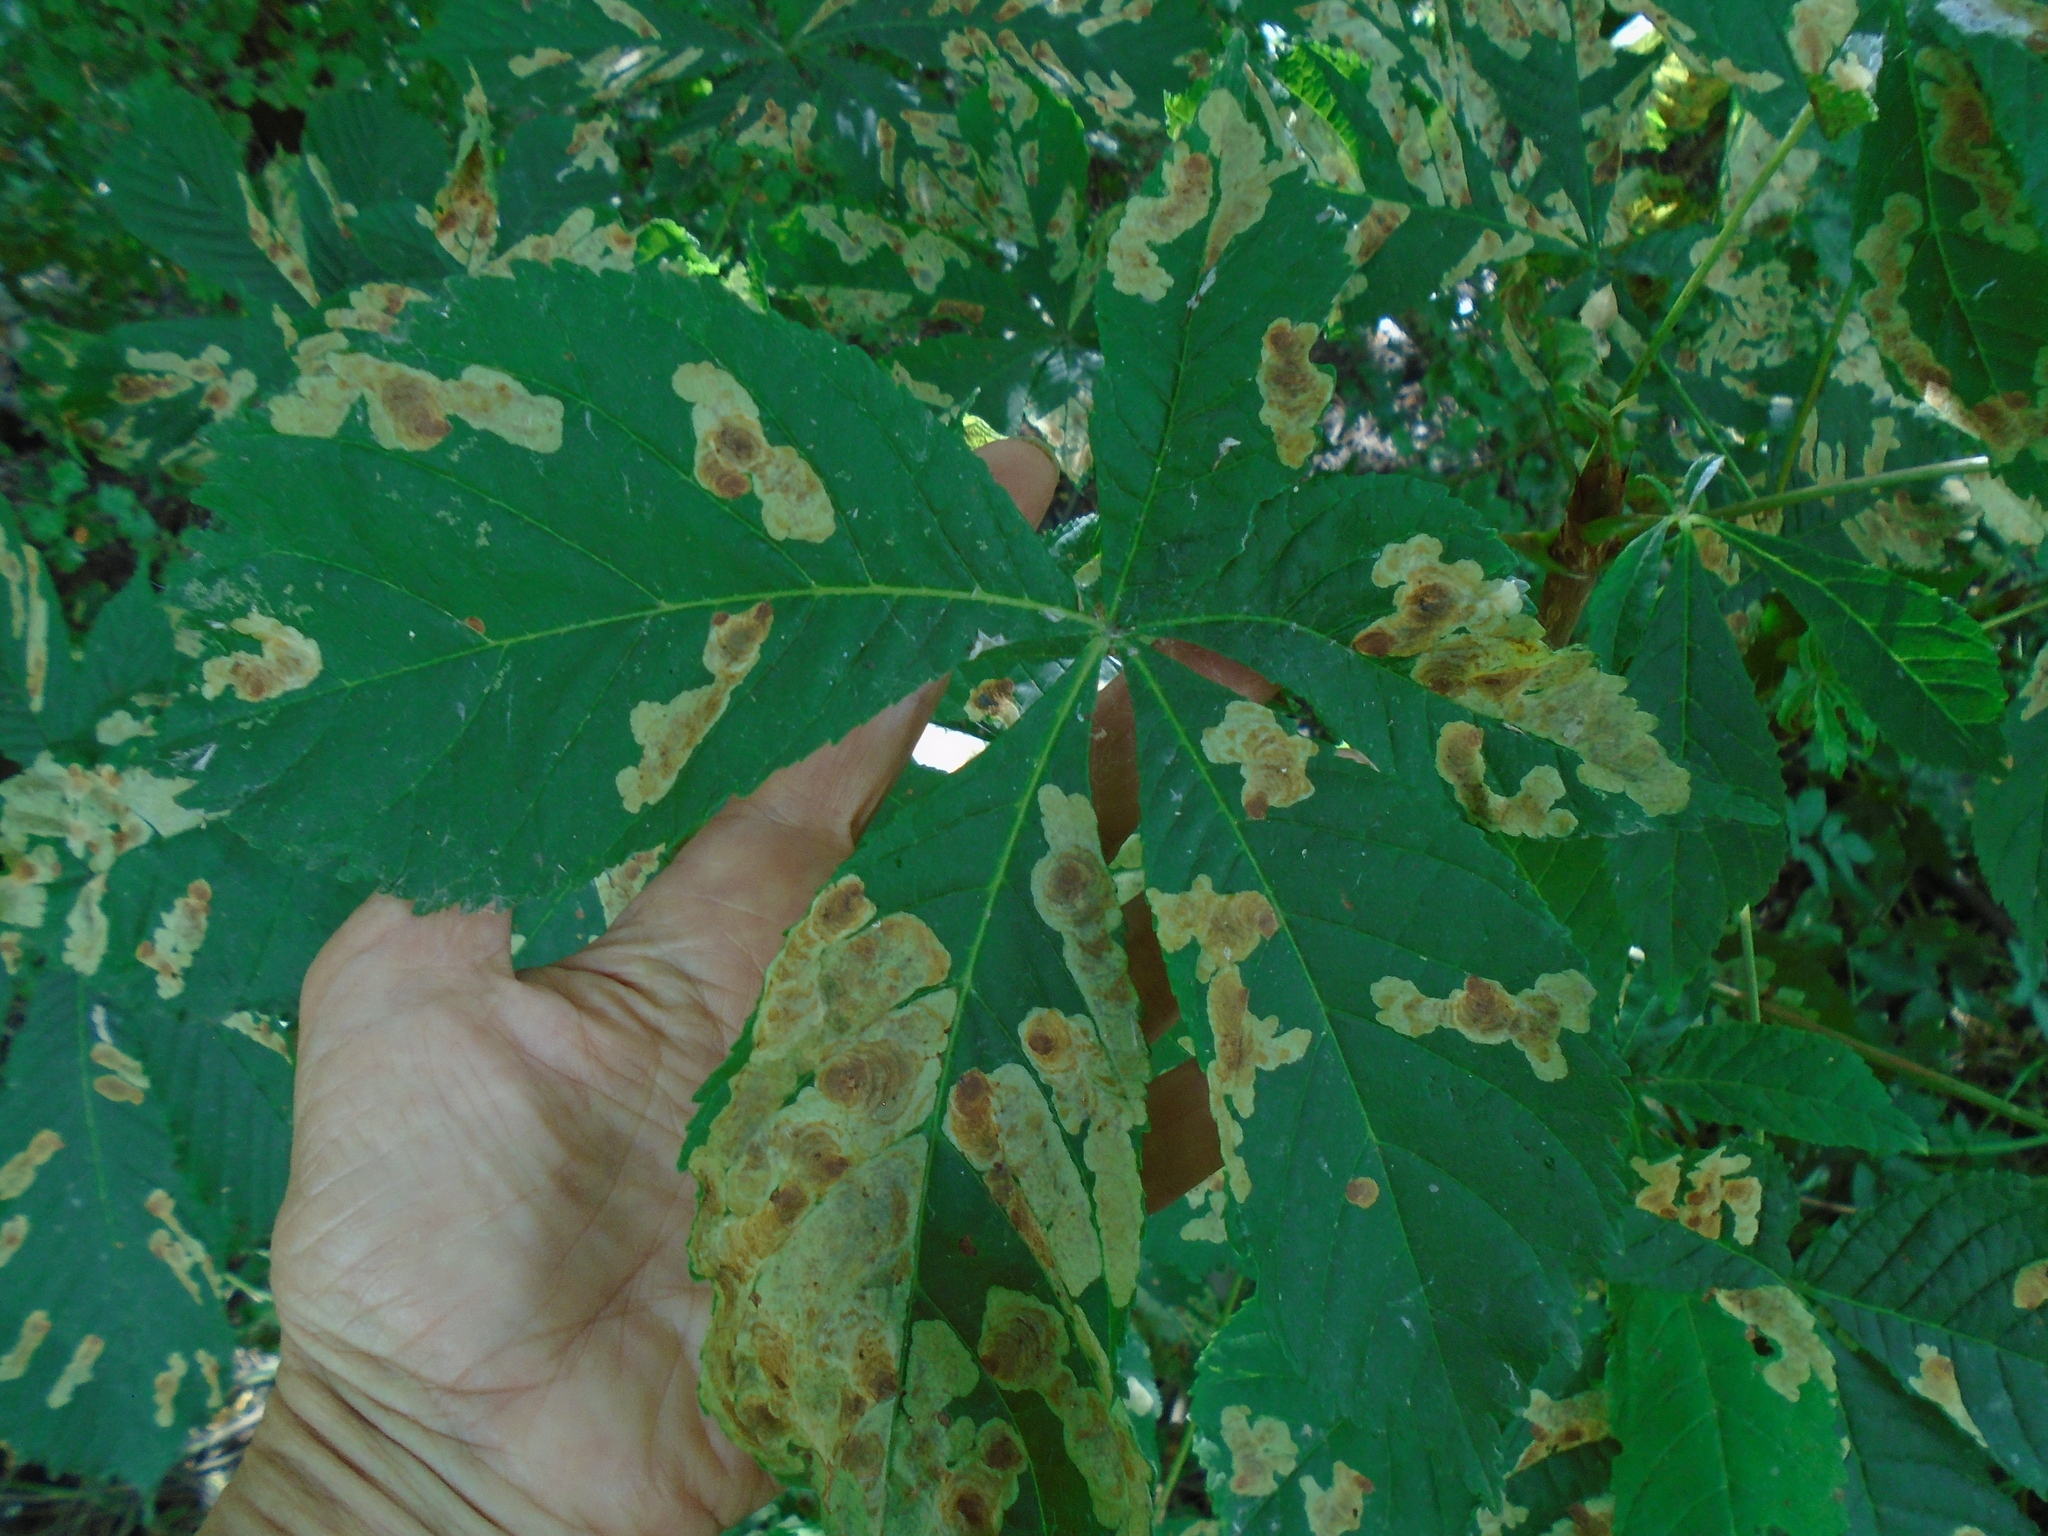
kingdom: Animalia
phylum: Arthropoda
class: Insecta
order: Lepidoptera
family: Gracillariidae
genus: Cameraria
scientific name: Cameraria ohridella
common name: Horse-chestnut leaf-miner
